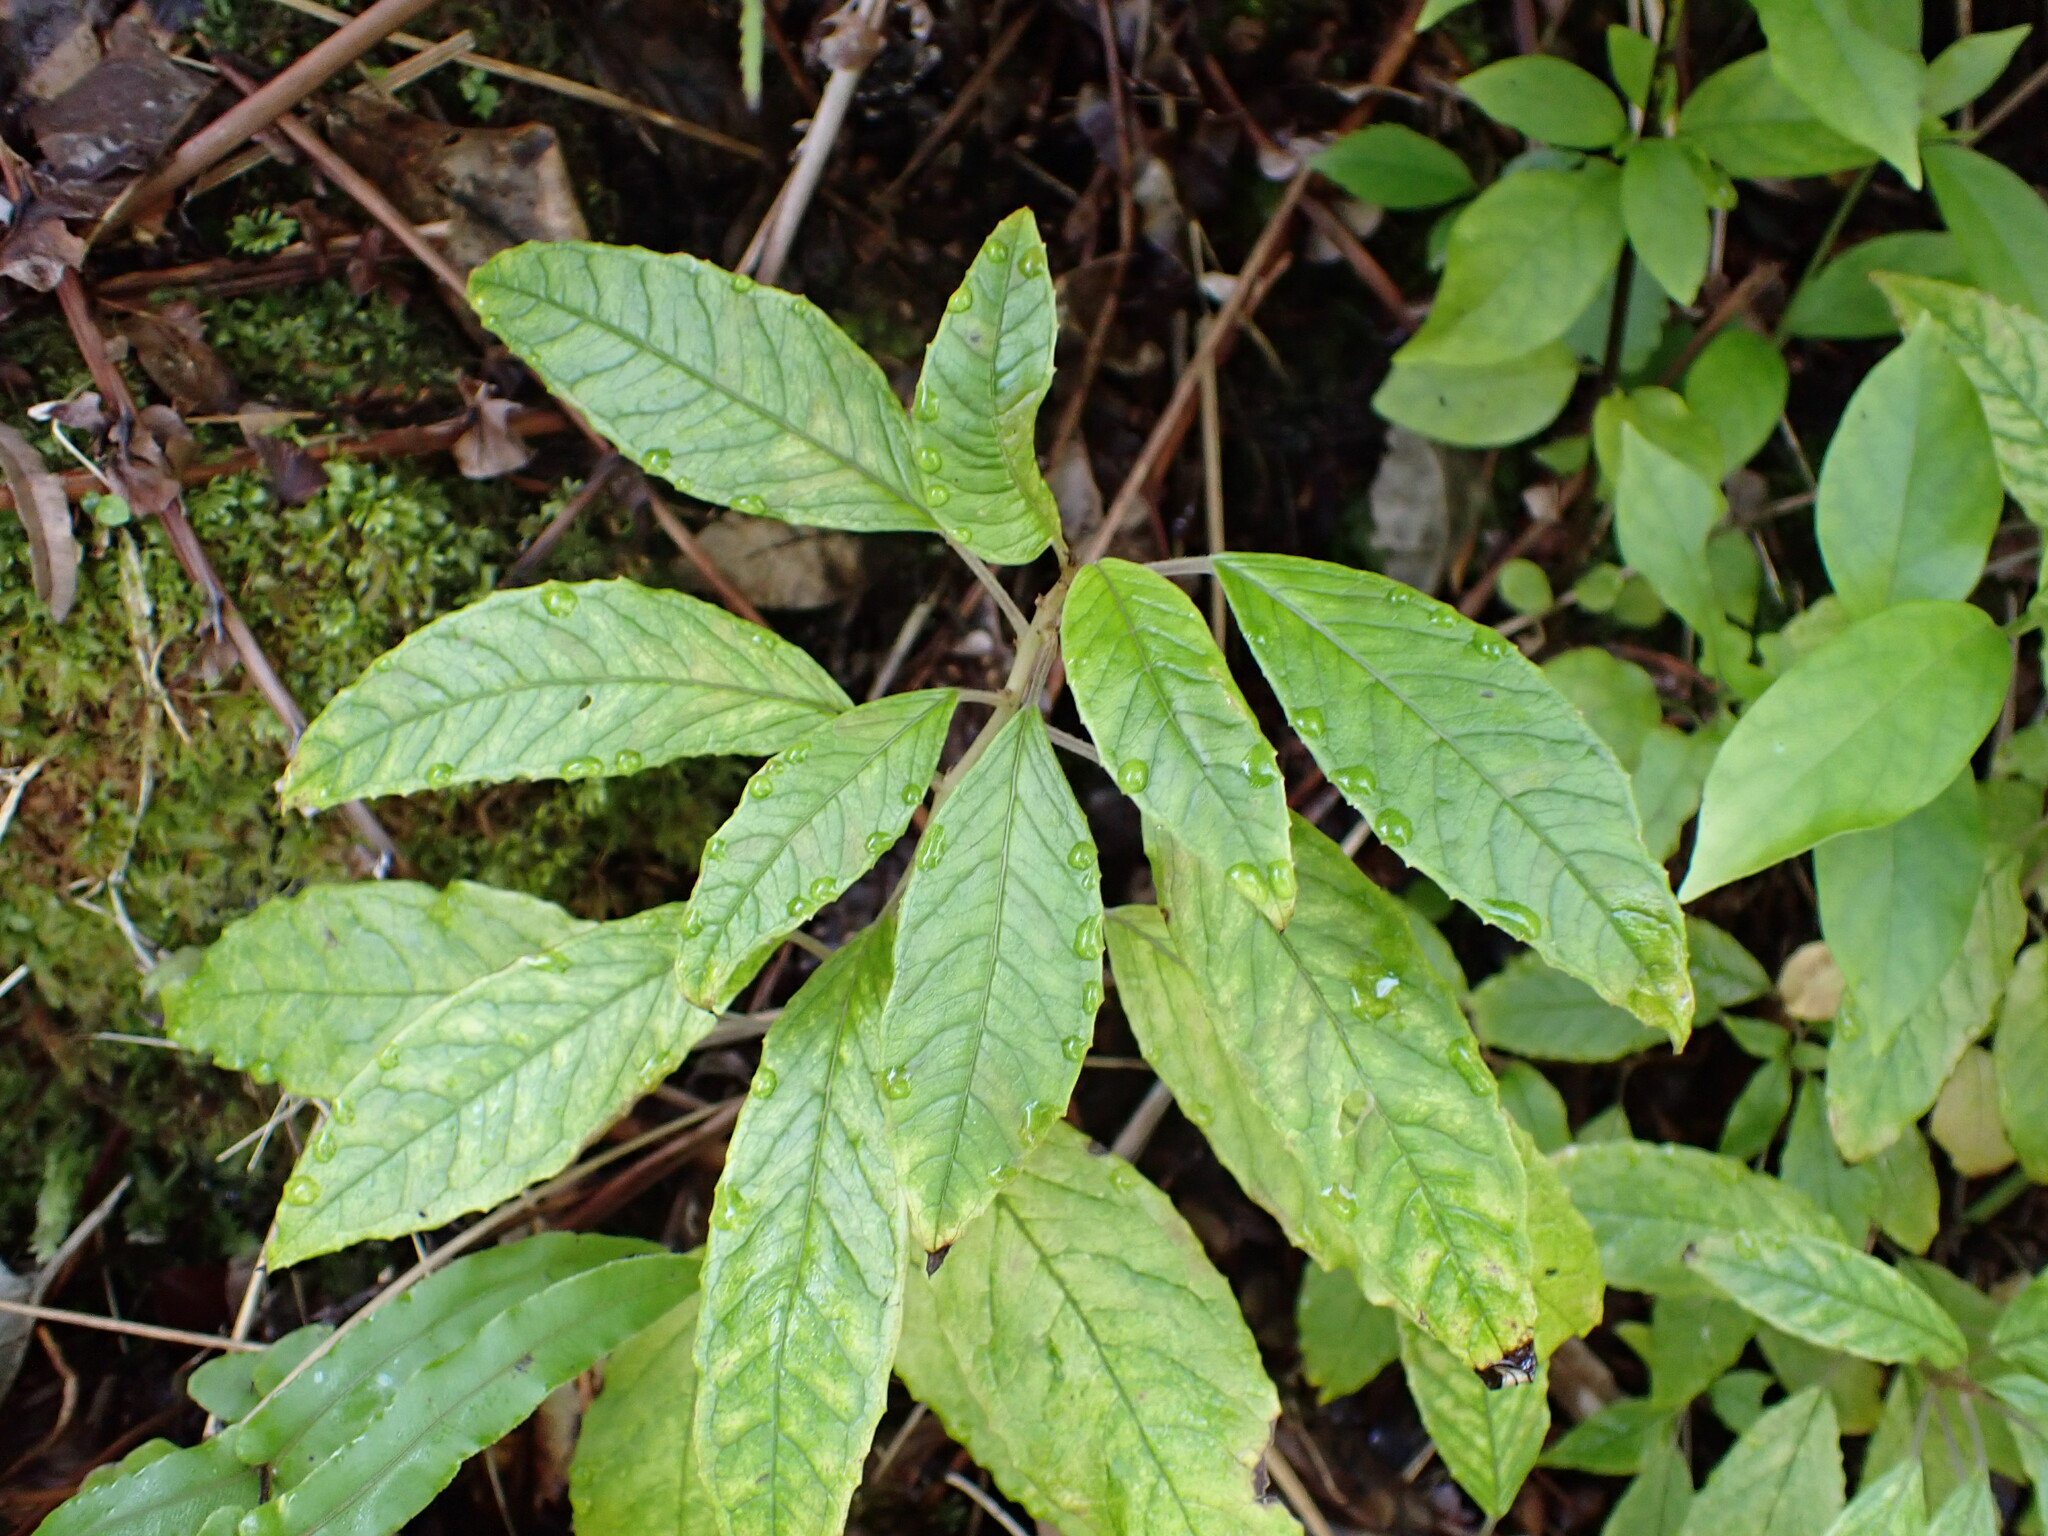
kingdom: Plantae
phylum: Tracheophyta
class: Magnoliopsida
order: Myrtales
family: Onagraceae
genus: Fuchsia
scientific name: Fuchsia excorticata
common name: Tree fuchsia
